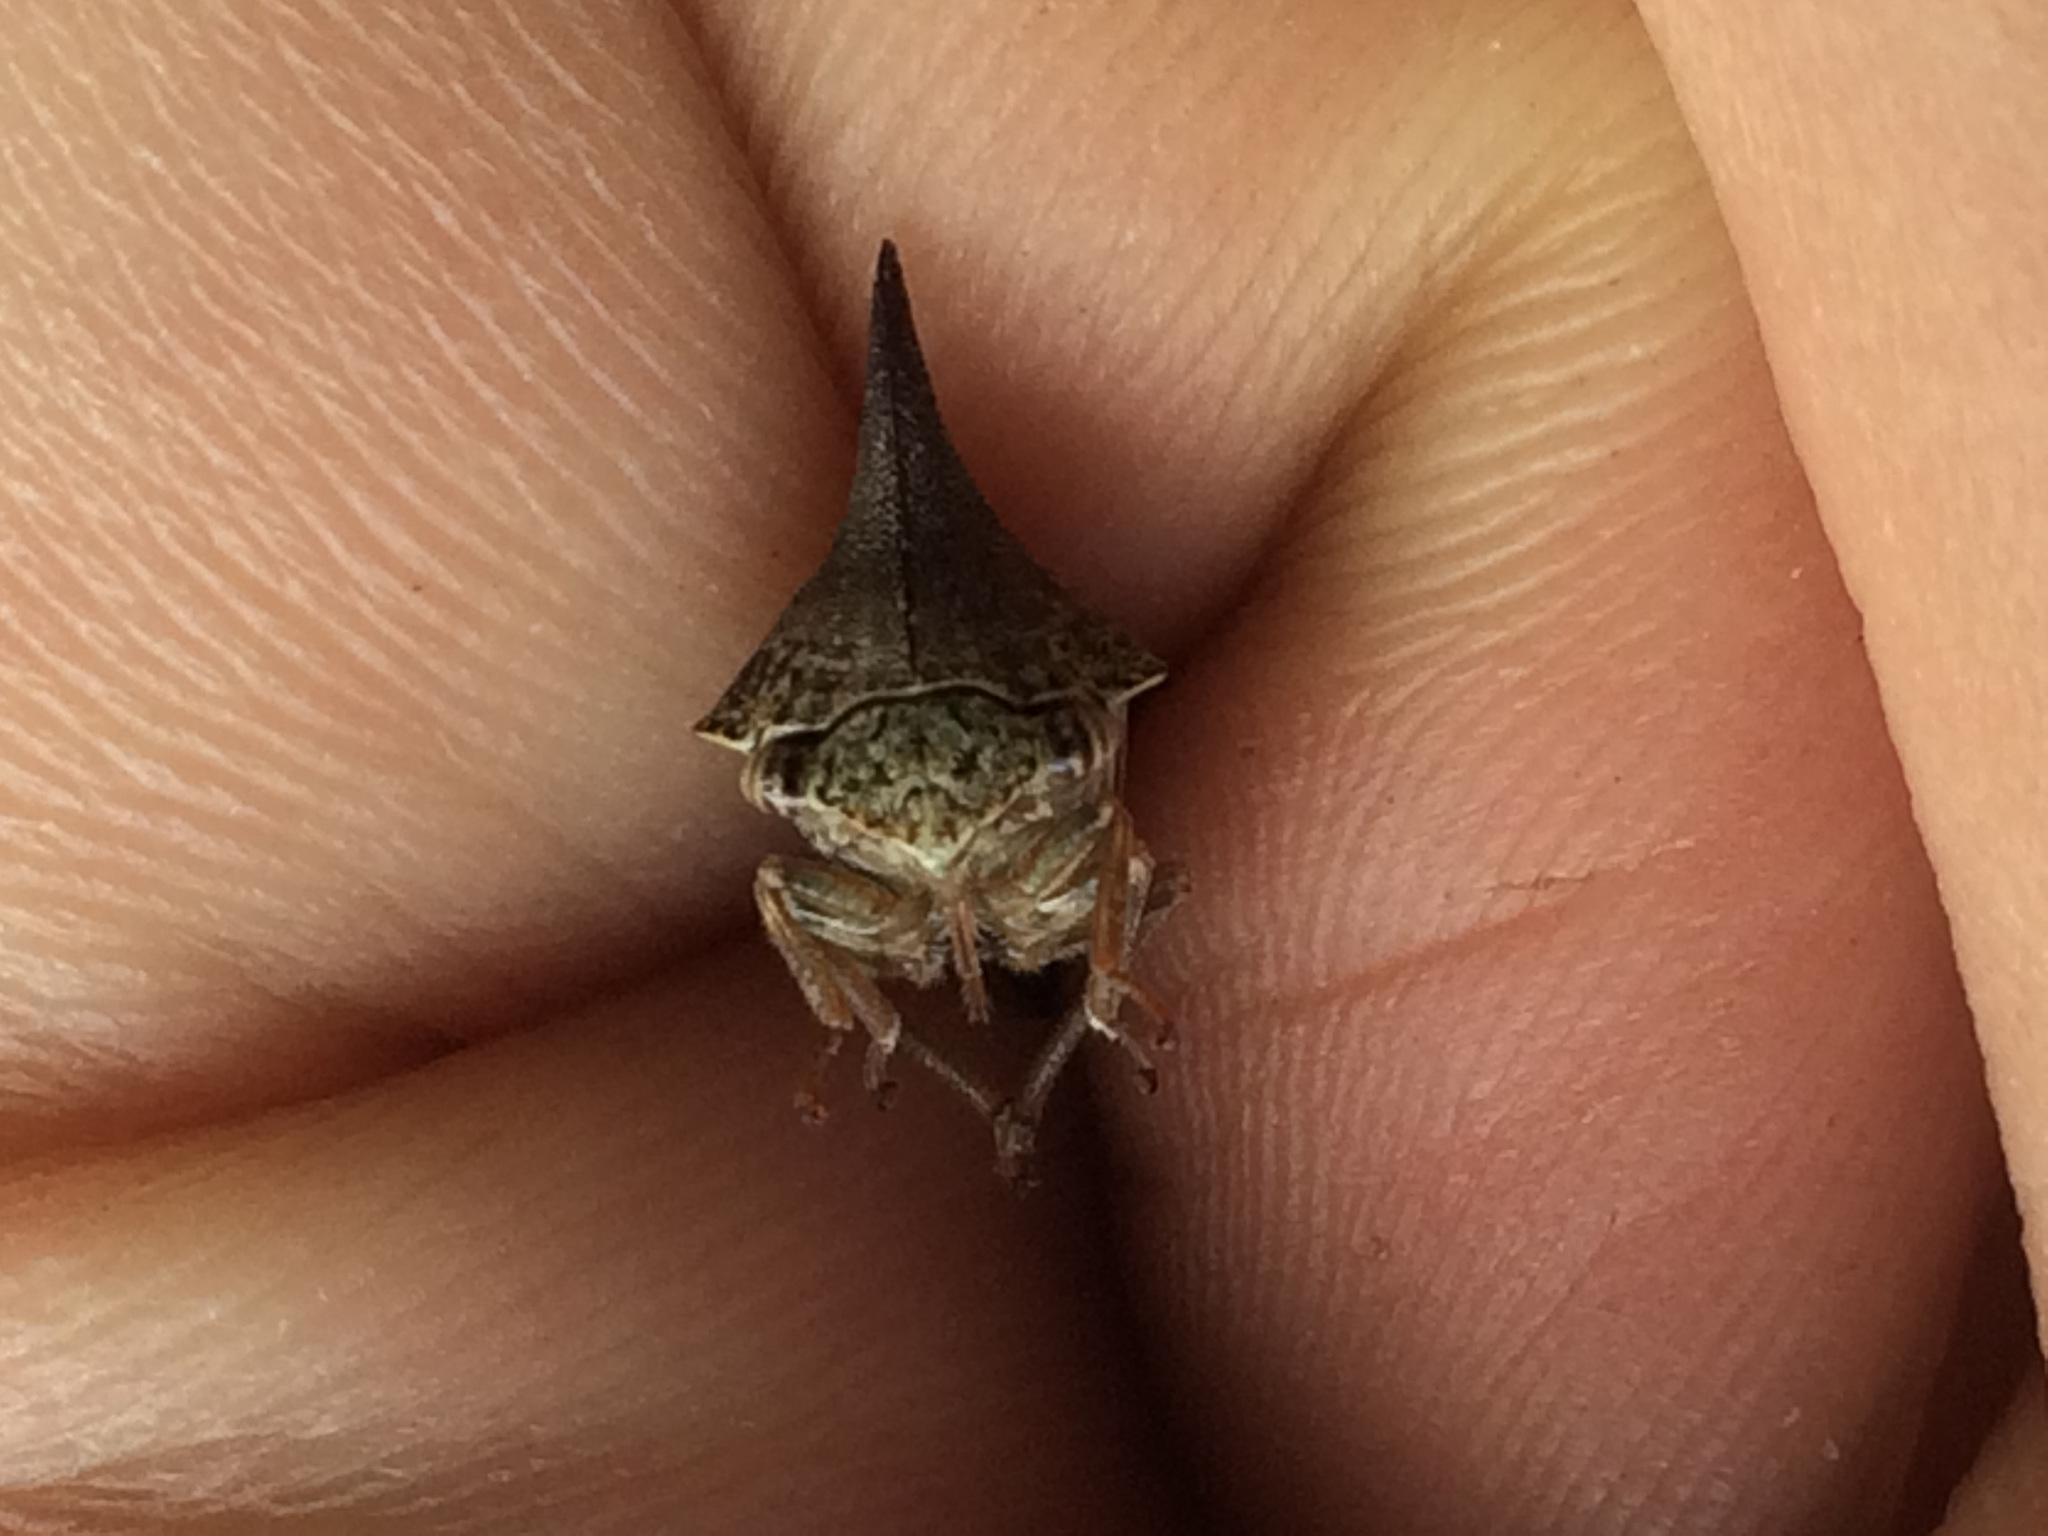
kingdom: Animalia
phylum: Arthropoda
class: Insecta
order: Hemiptera
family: Membracidae
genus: Thelia
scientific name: Thelia bimaculata
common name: Locust treehopper
